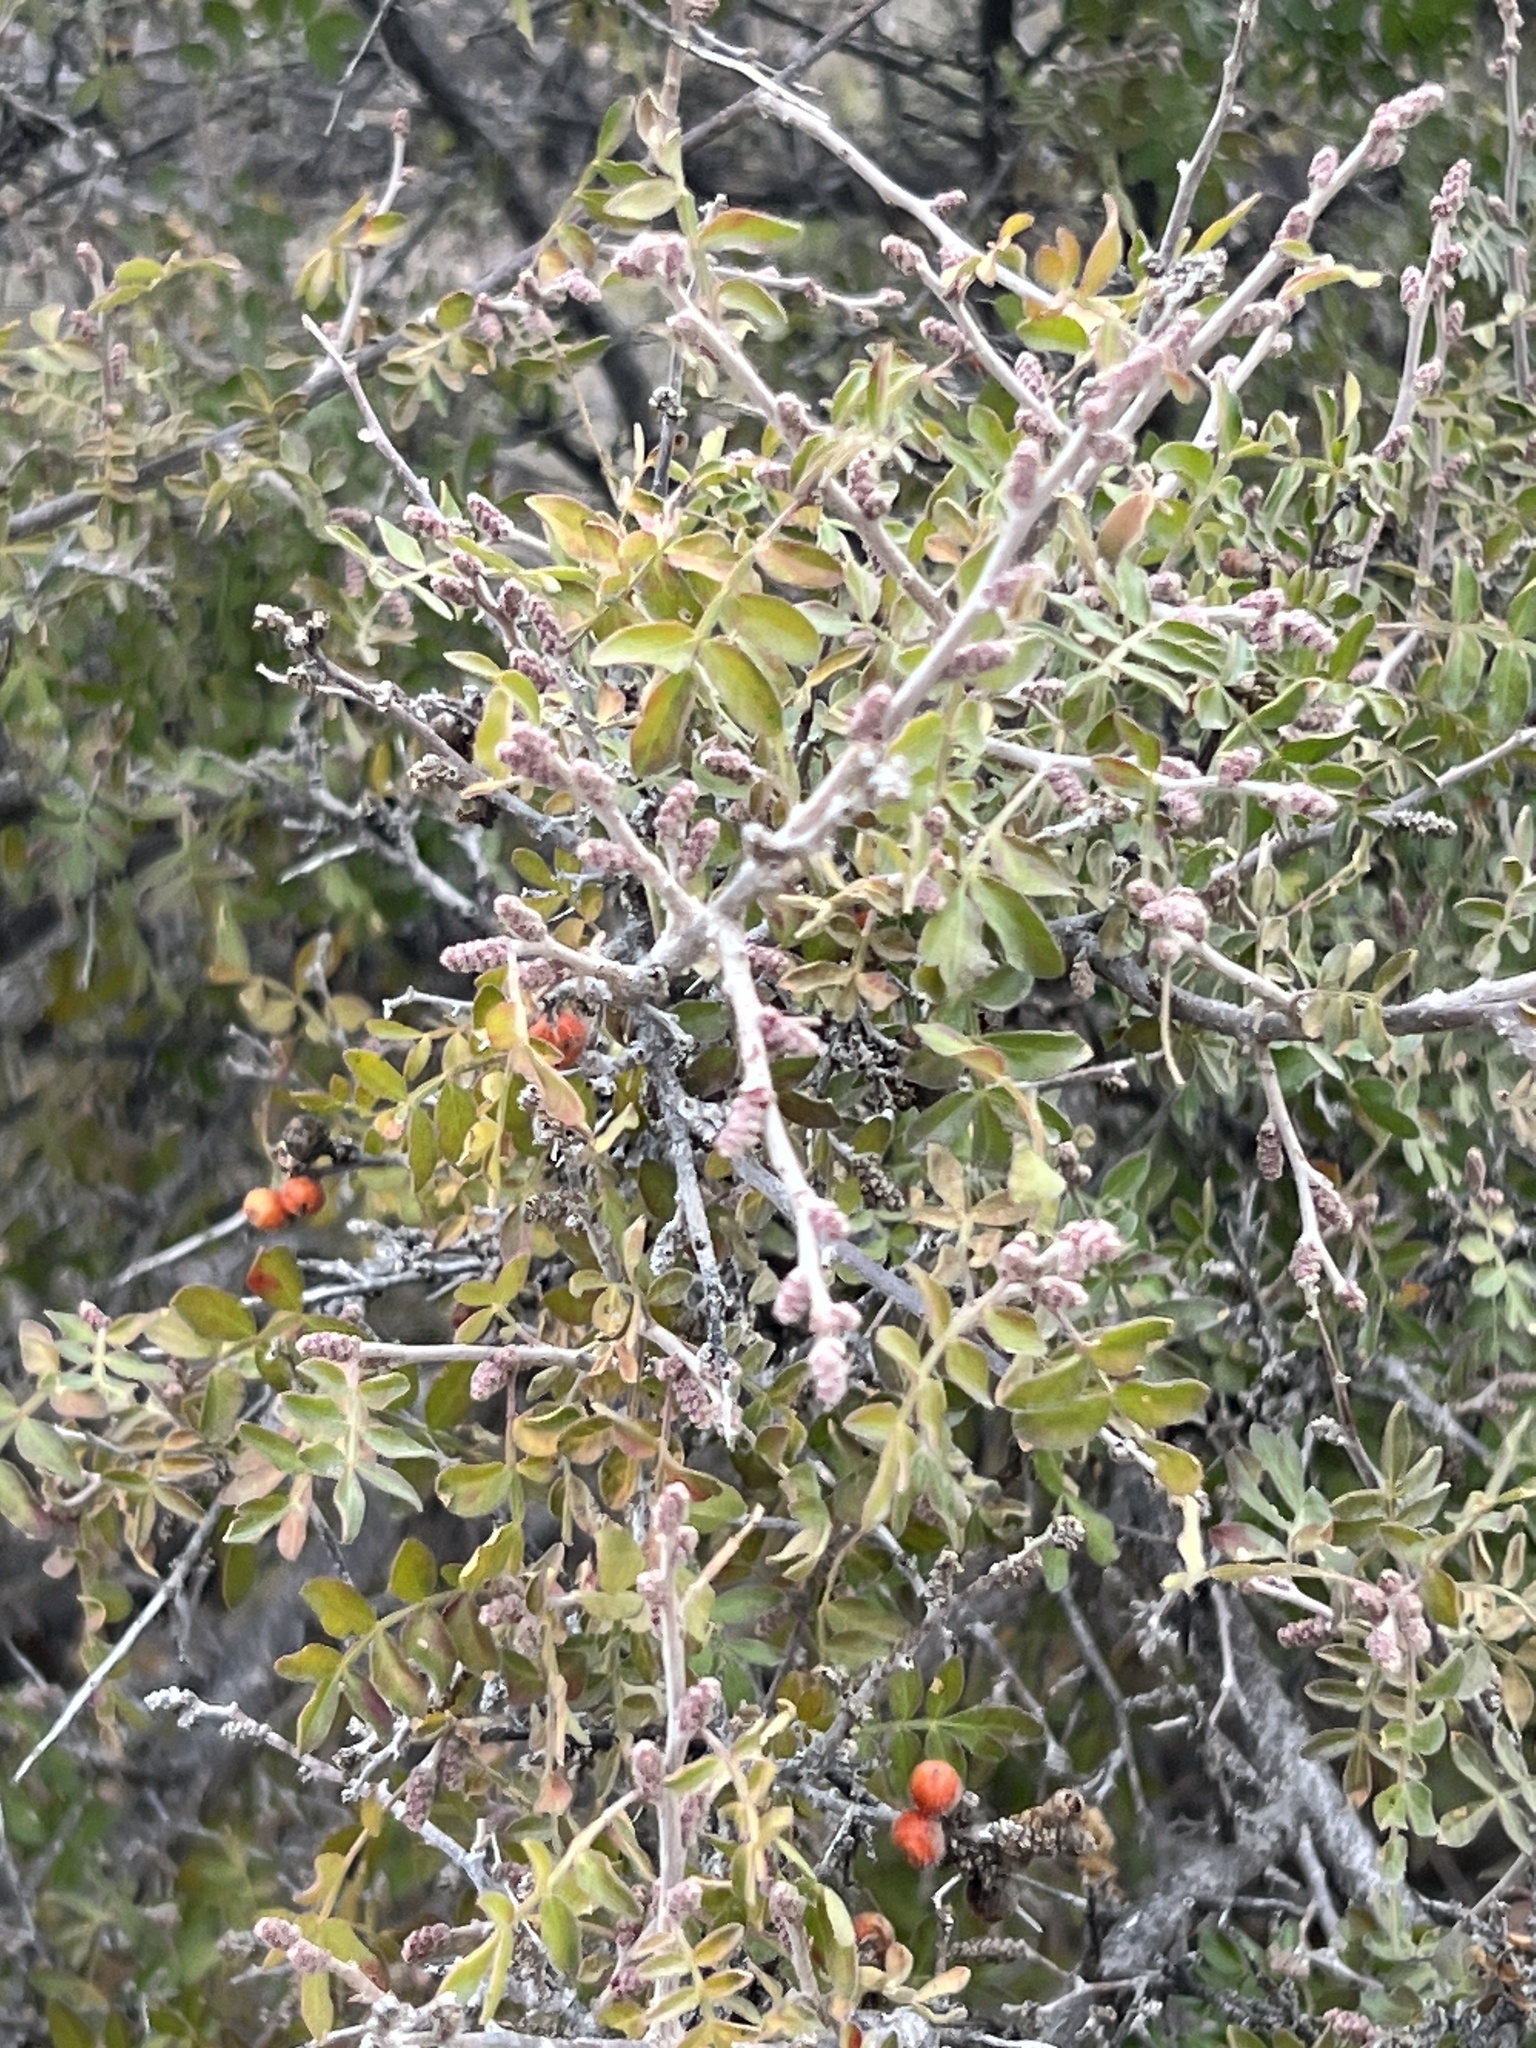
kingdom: Plantae
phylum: Tracheophyta
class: Magnoliopsida
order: Sapindales
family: Anacardiaceae
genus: Rhus
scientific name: Rhus microphylla
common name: Desert sumac
